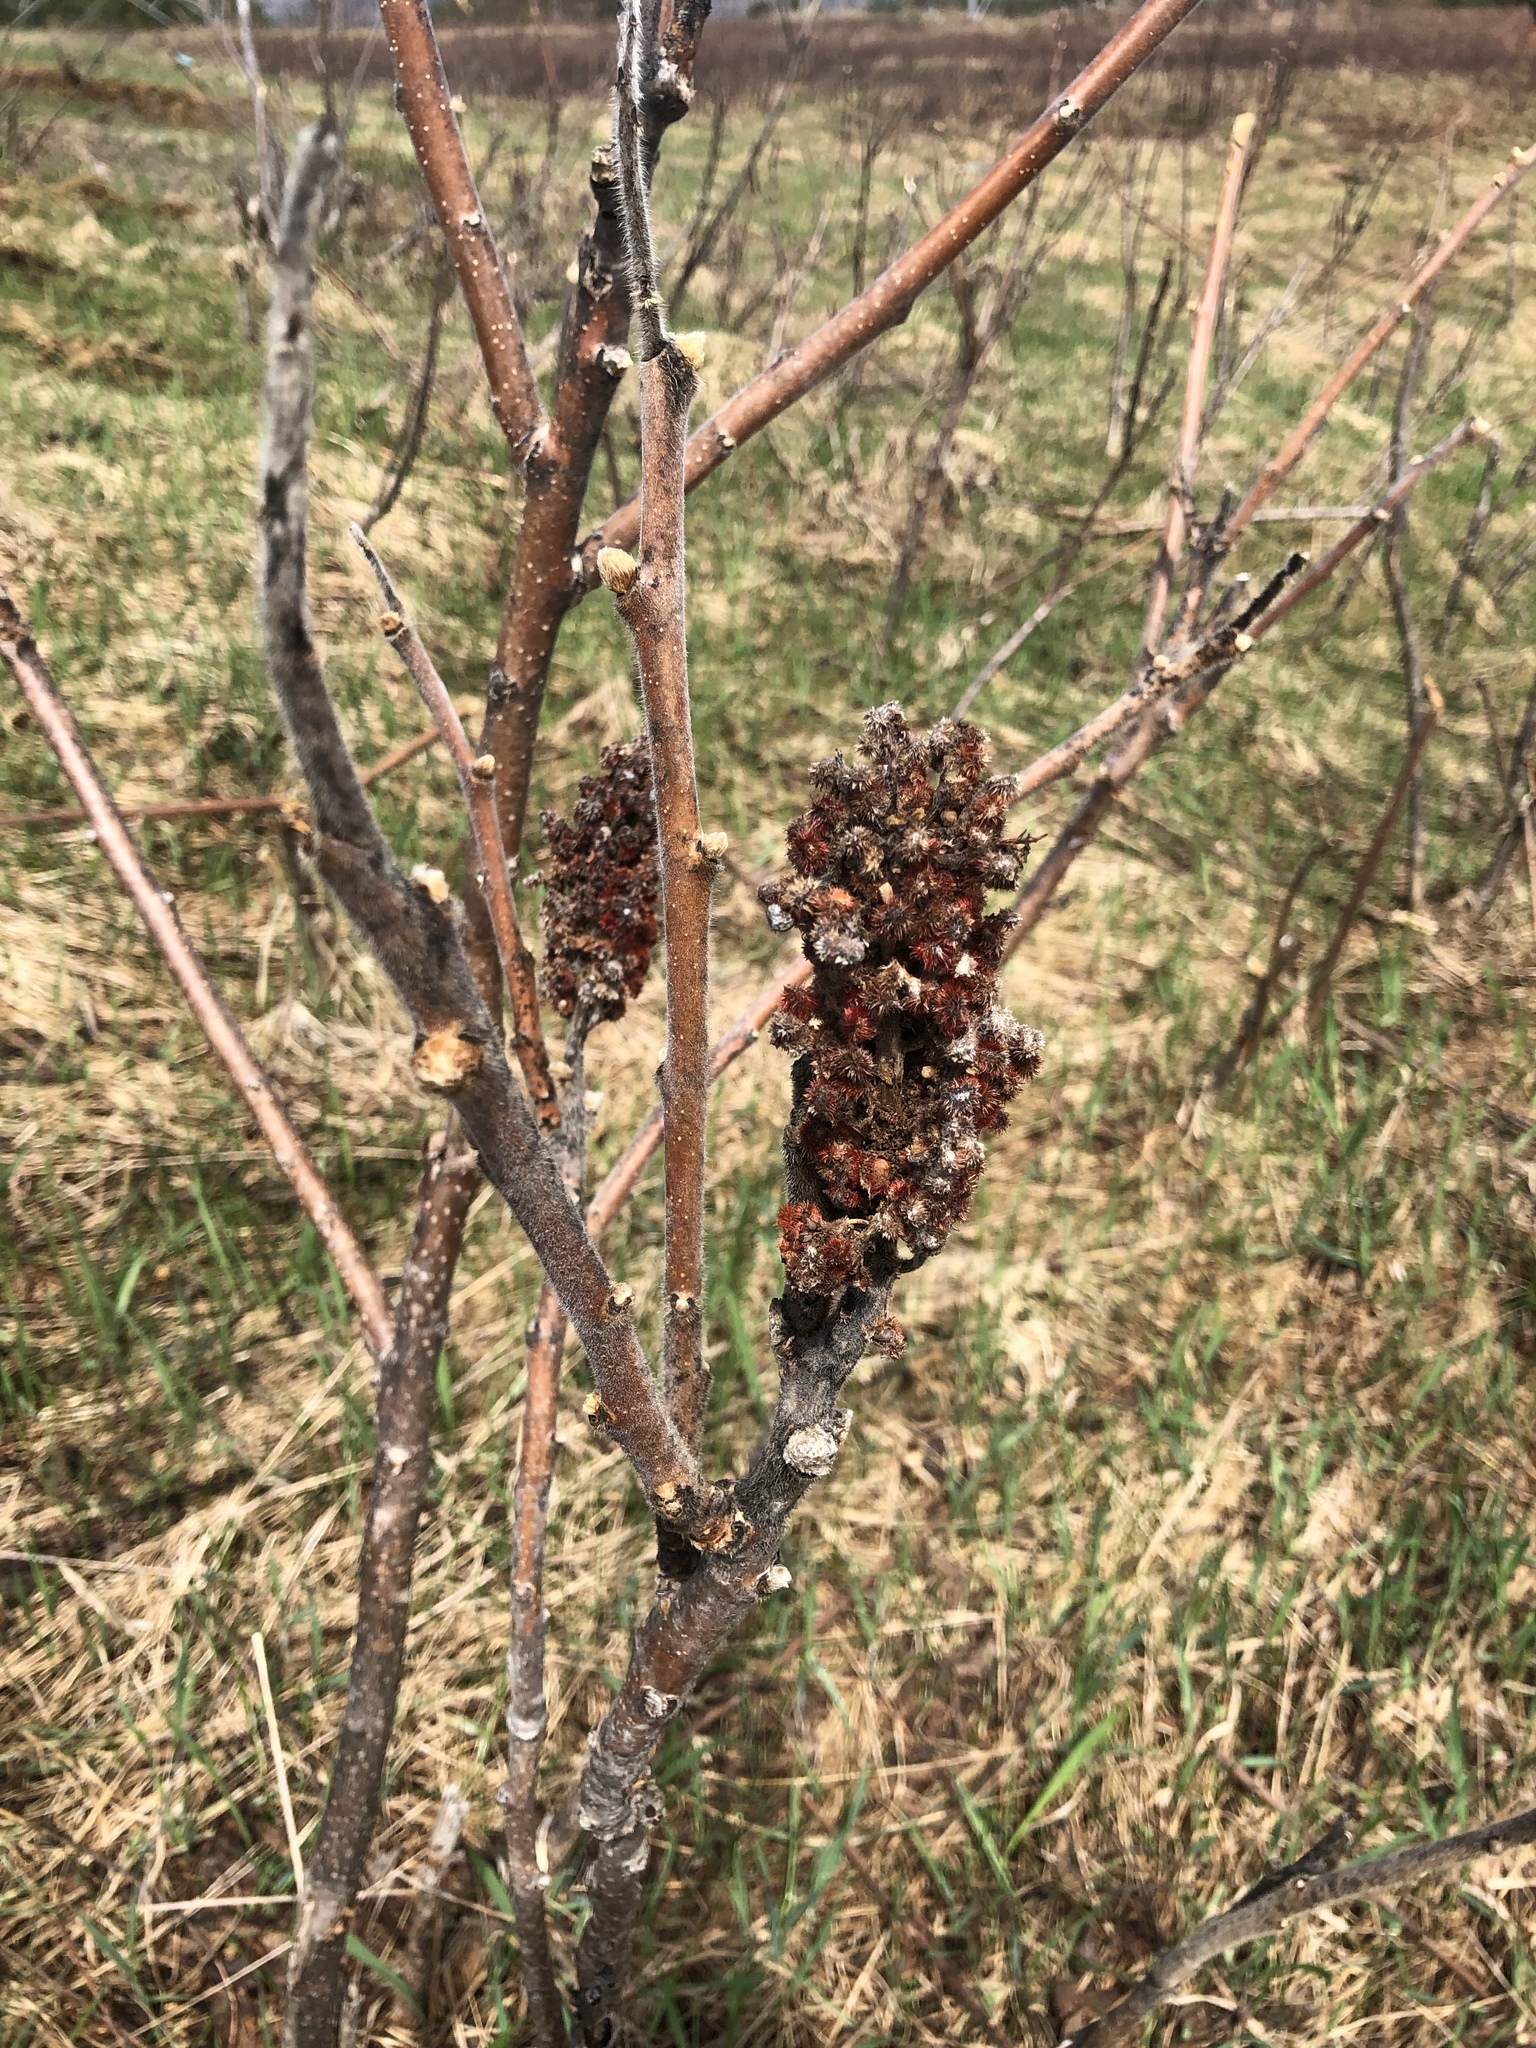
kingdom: Plantae
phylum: Tracheophyta
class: Magnoliopsida
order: Sapindales
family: Anacardiaceae
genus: Rhus
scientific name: Rhus typhina
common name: Staghorn sumac
